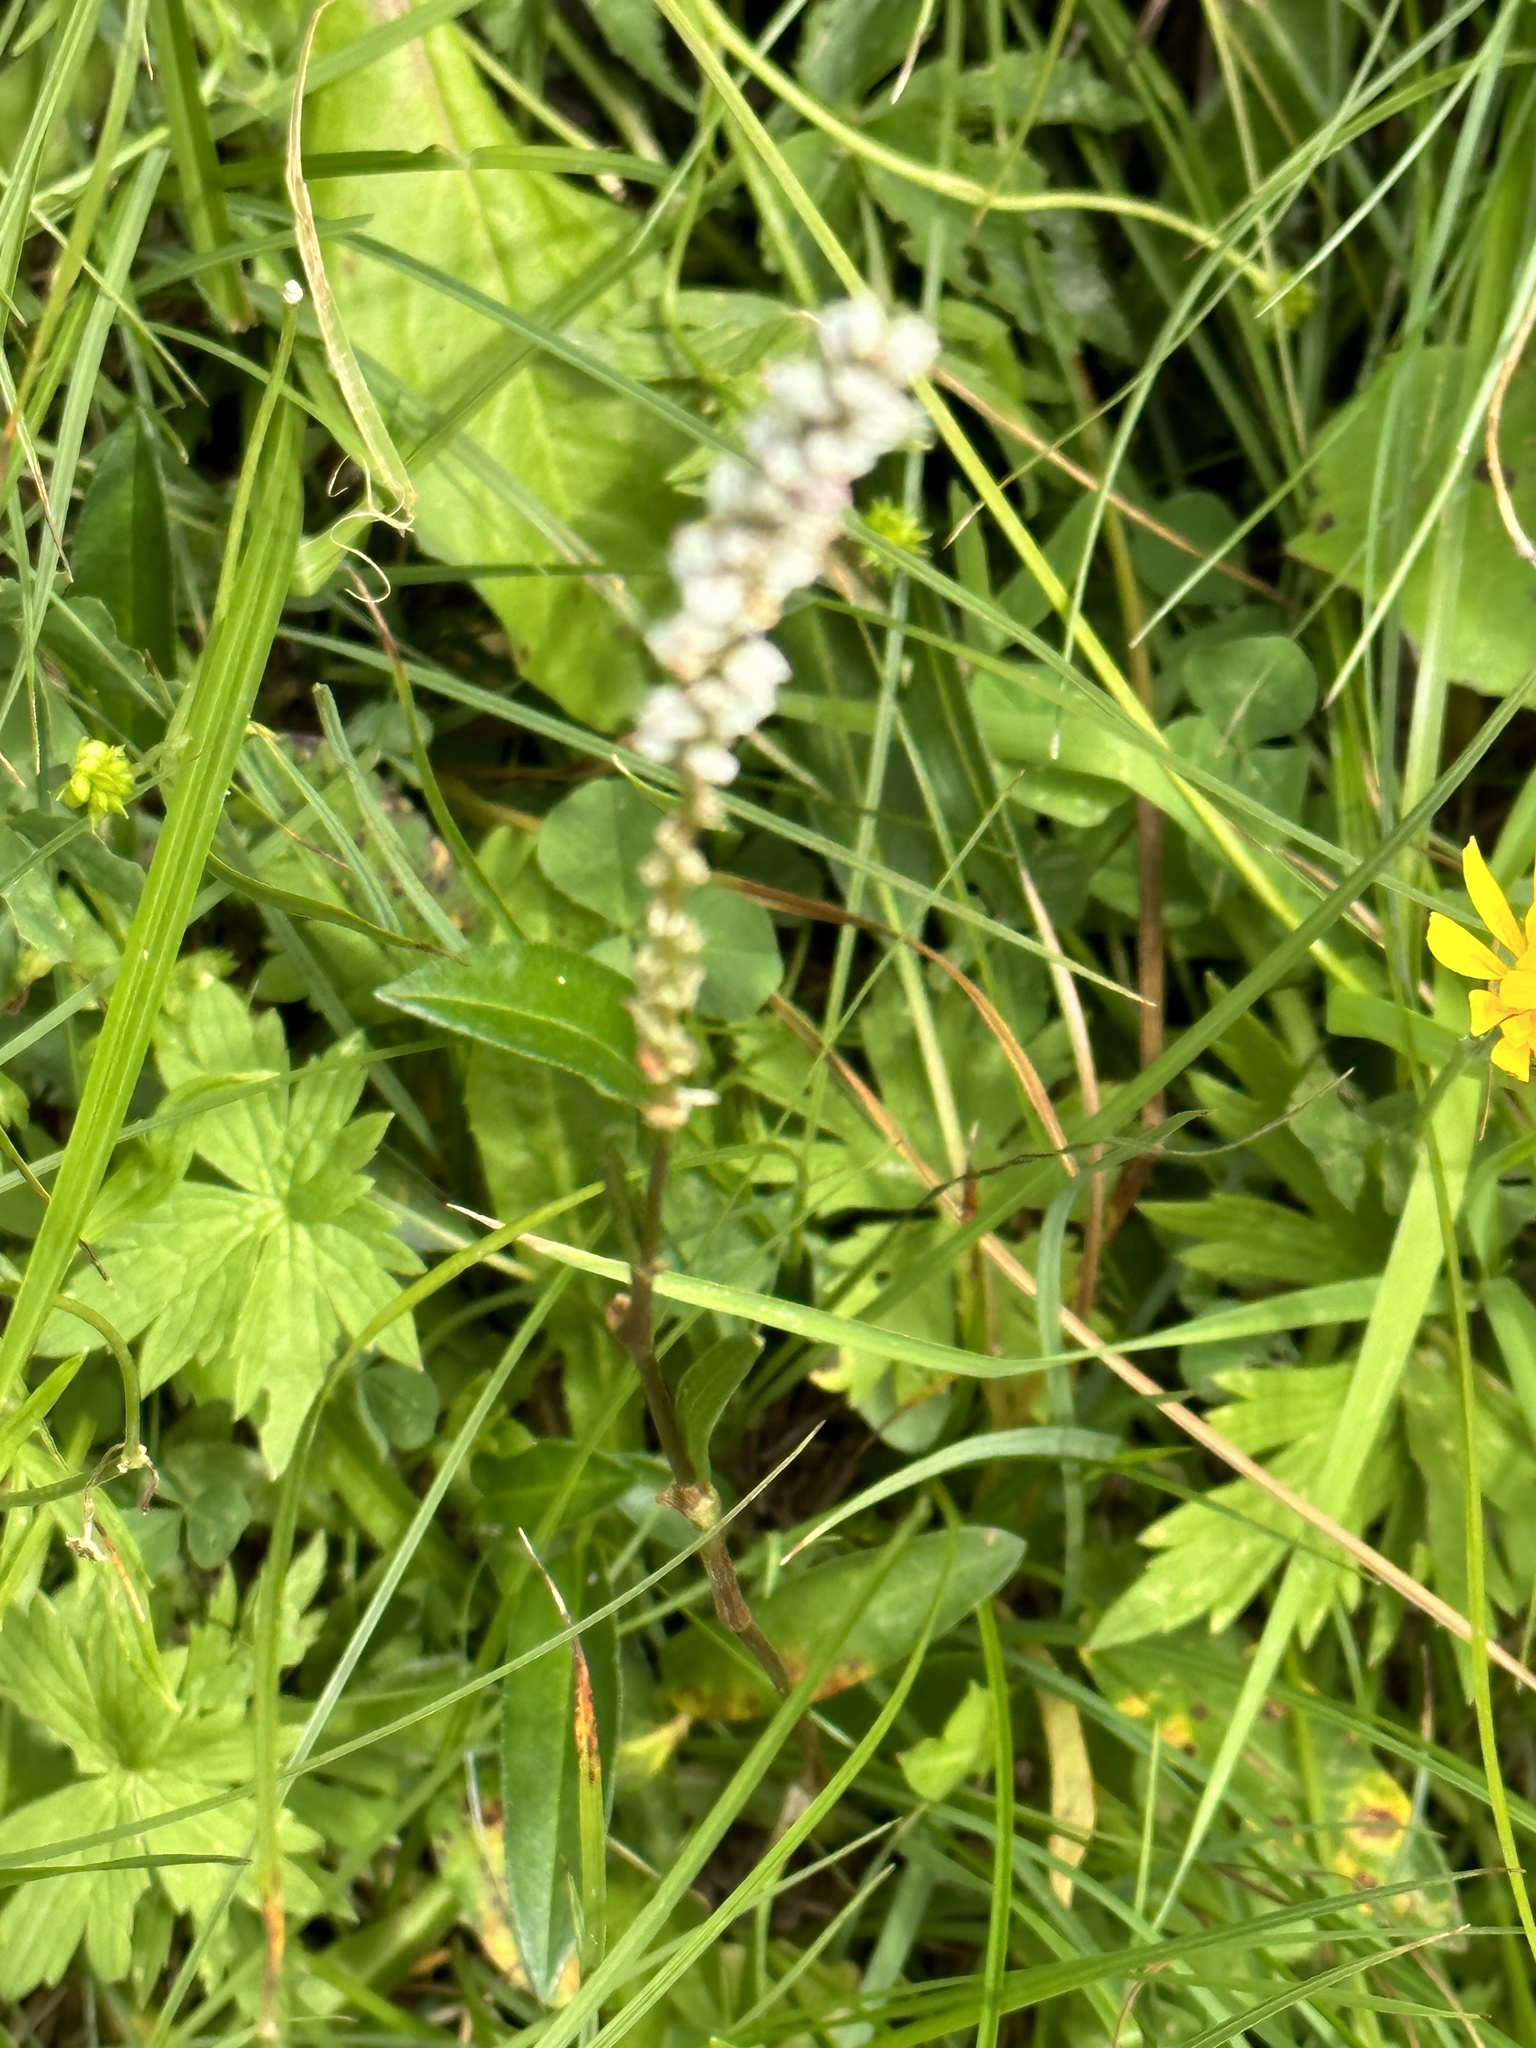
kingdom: Plantae
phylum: Tracheophyta
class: Magnoliopsida
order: Caryophyllales
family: Polygonaceae
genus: Bistorta
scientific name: Bistorta vivipara
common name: Alpine bistort
